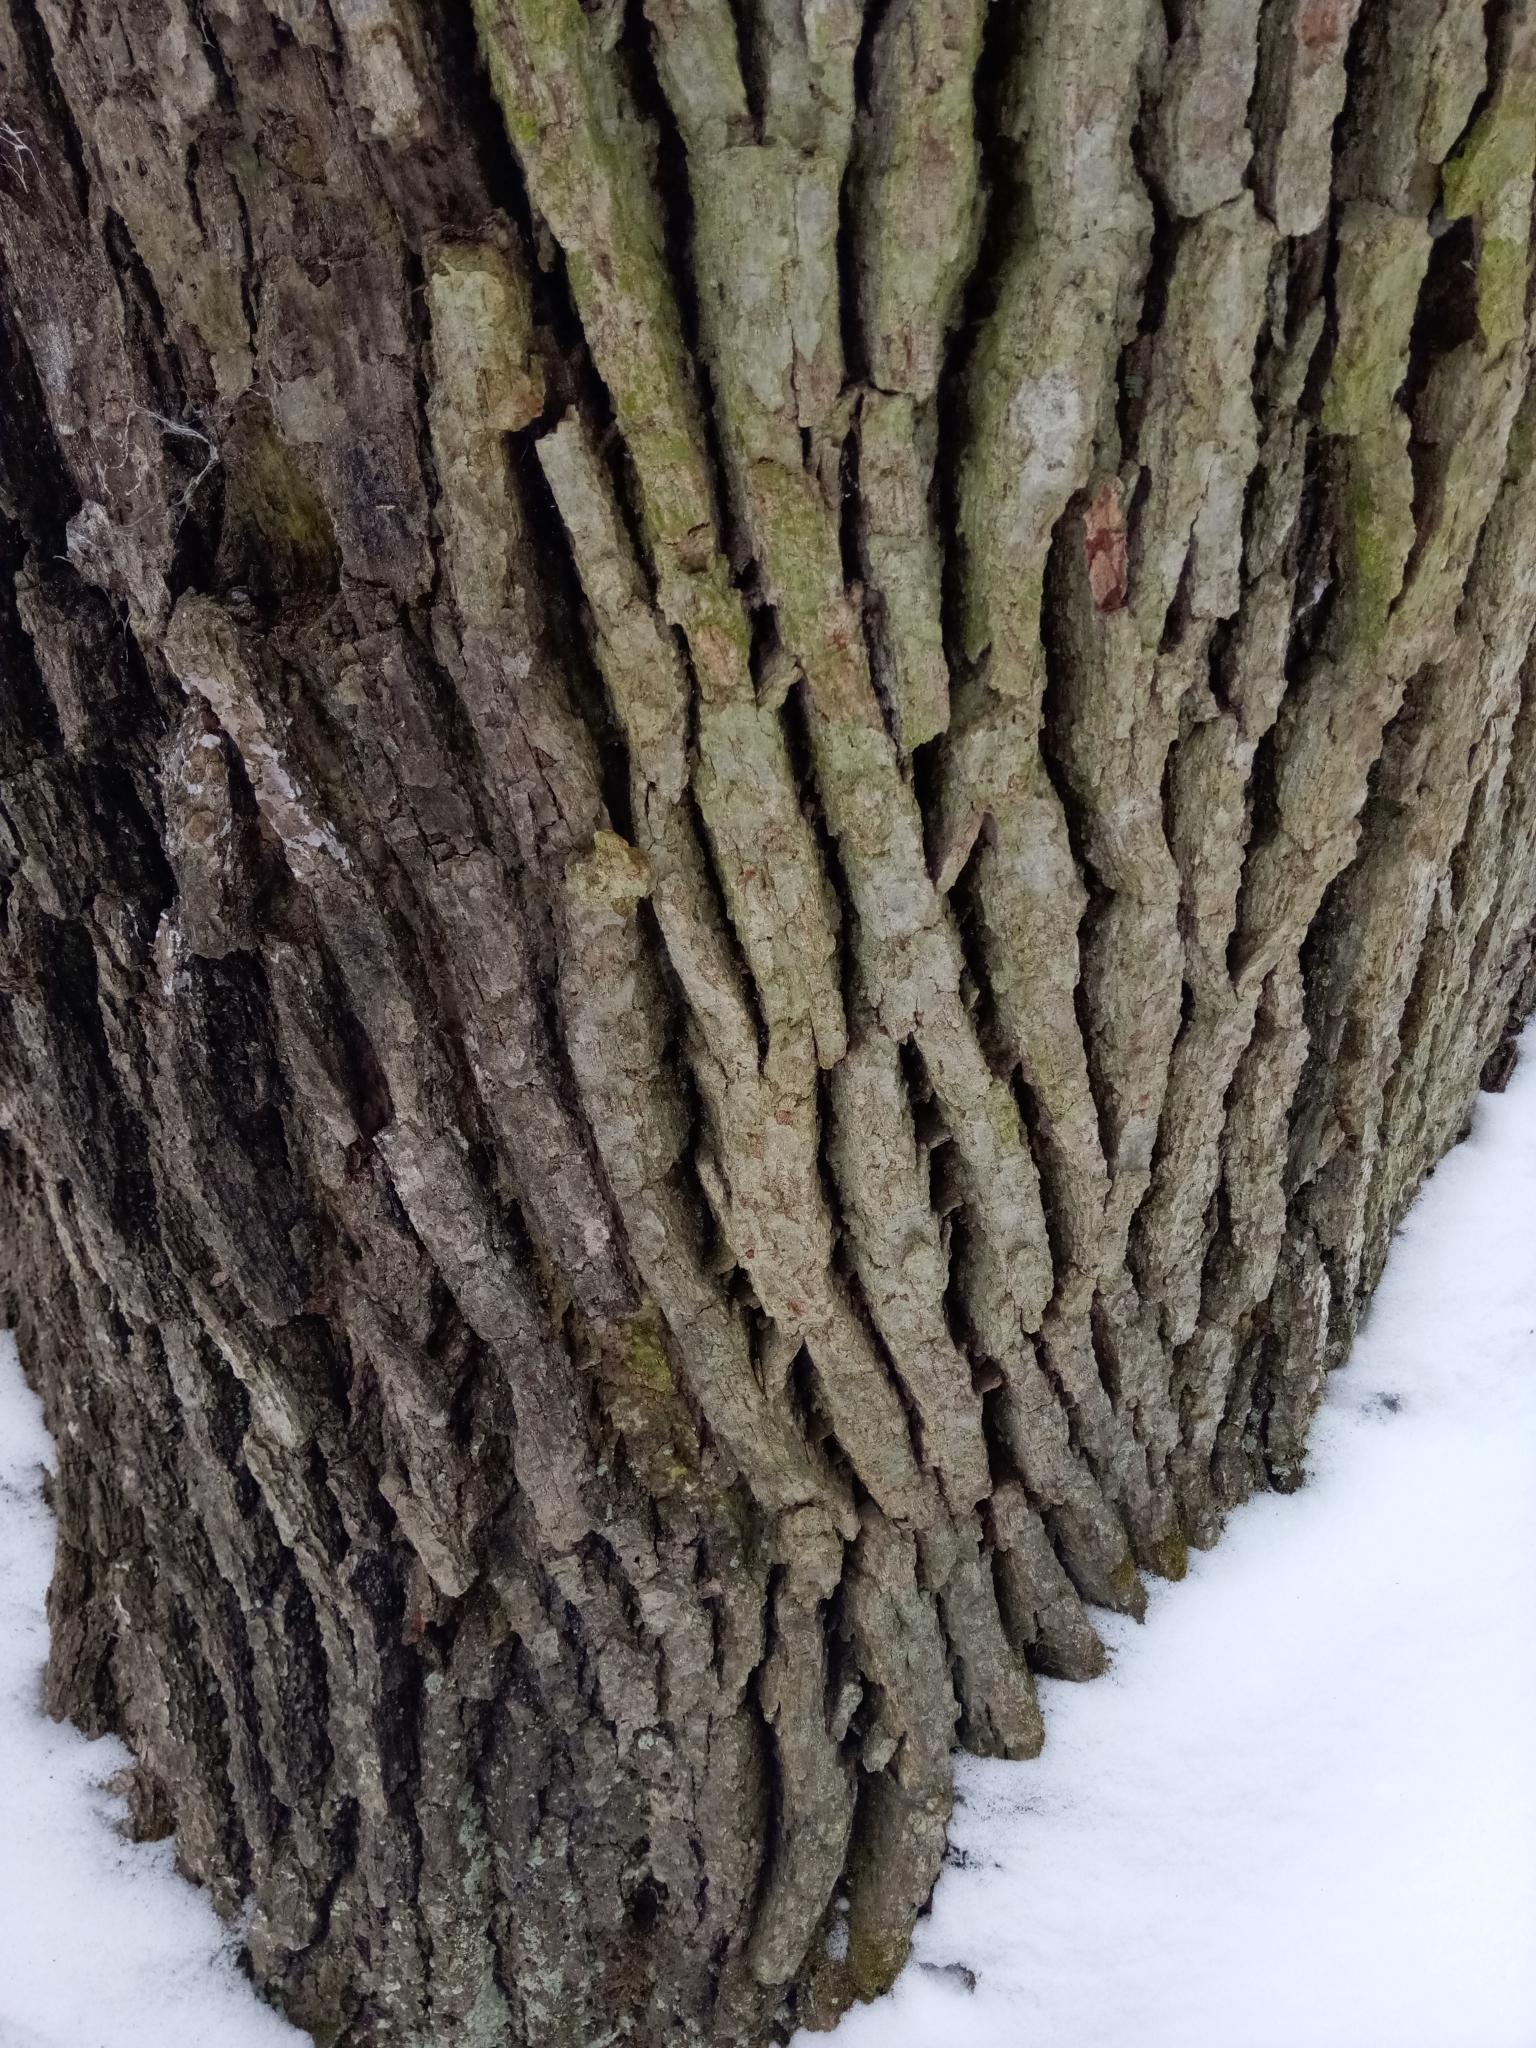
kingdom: Plantae
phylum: Tracheophyta
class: Magnoliopsida
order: Lamiales
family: Oleaceae
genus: Fraxinus
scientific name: Fraxinus americana
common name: White ash
